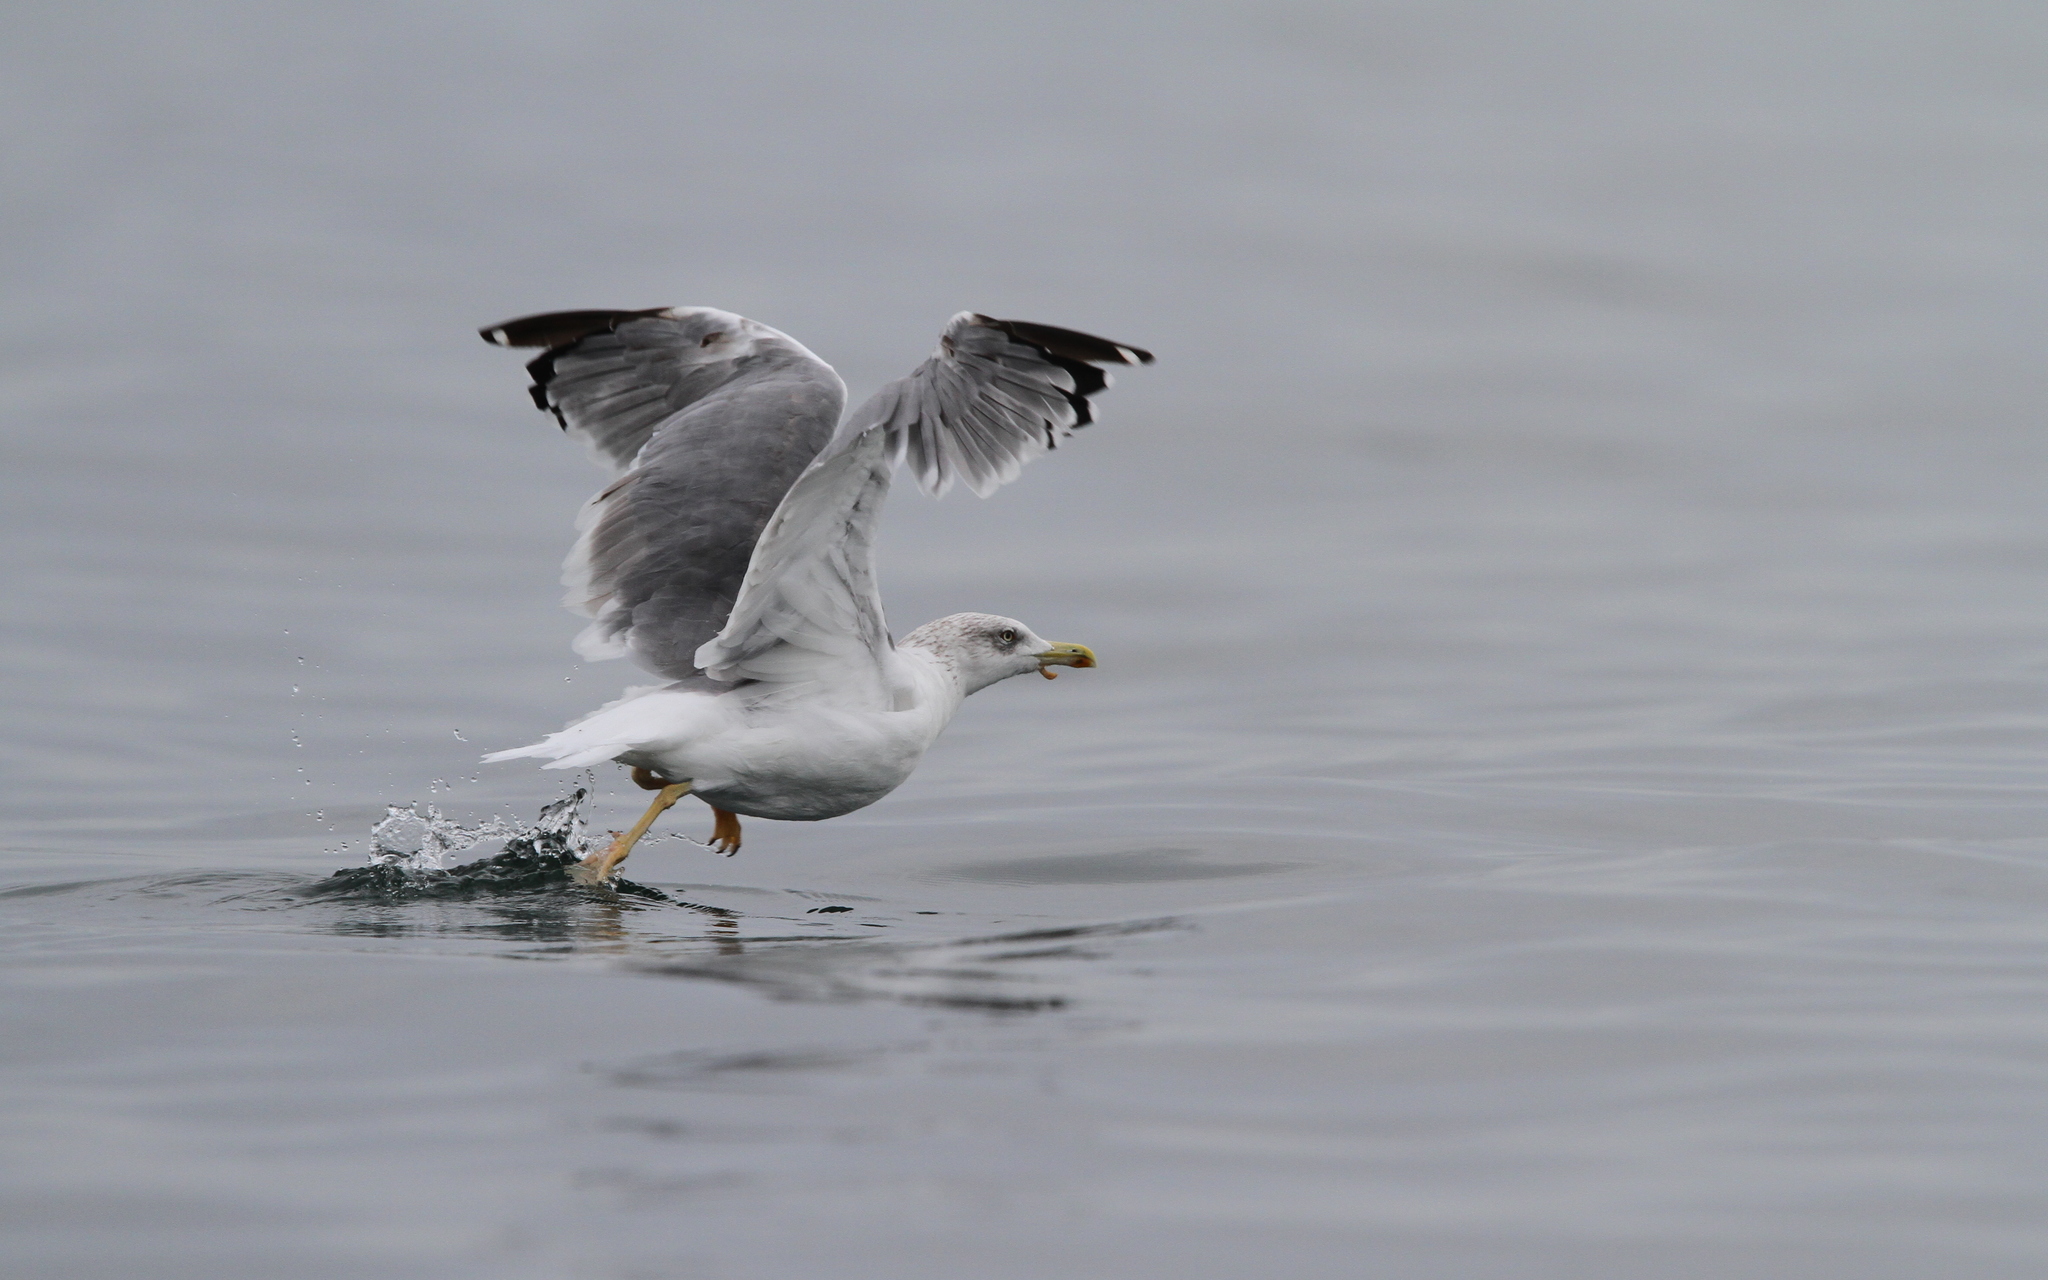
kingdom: Animalia
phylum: Chordata
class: Aves
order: Charadriiformes
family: Laridae
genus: Larus
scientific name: Larus michahellis
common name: Yellow-legged gull
